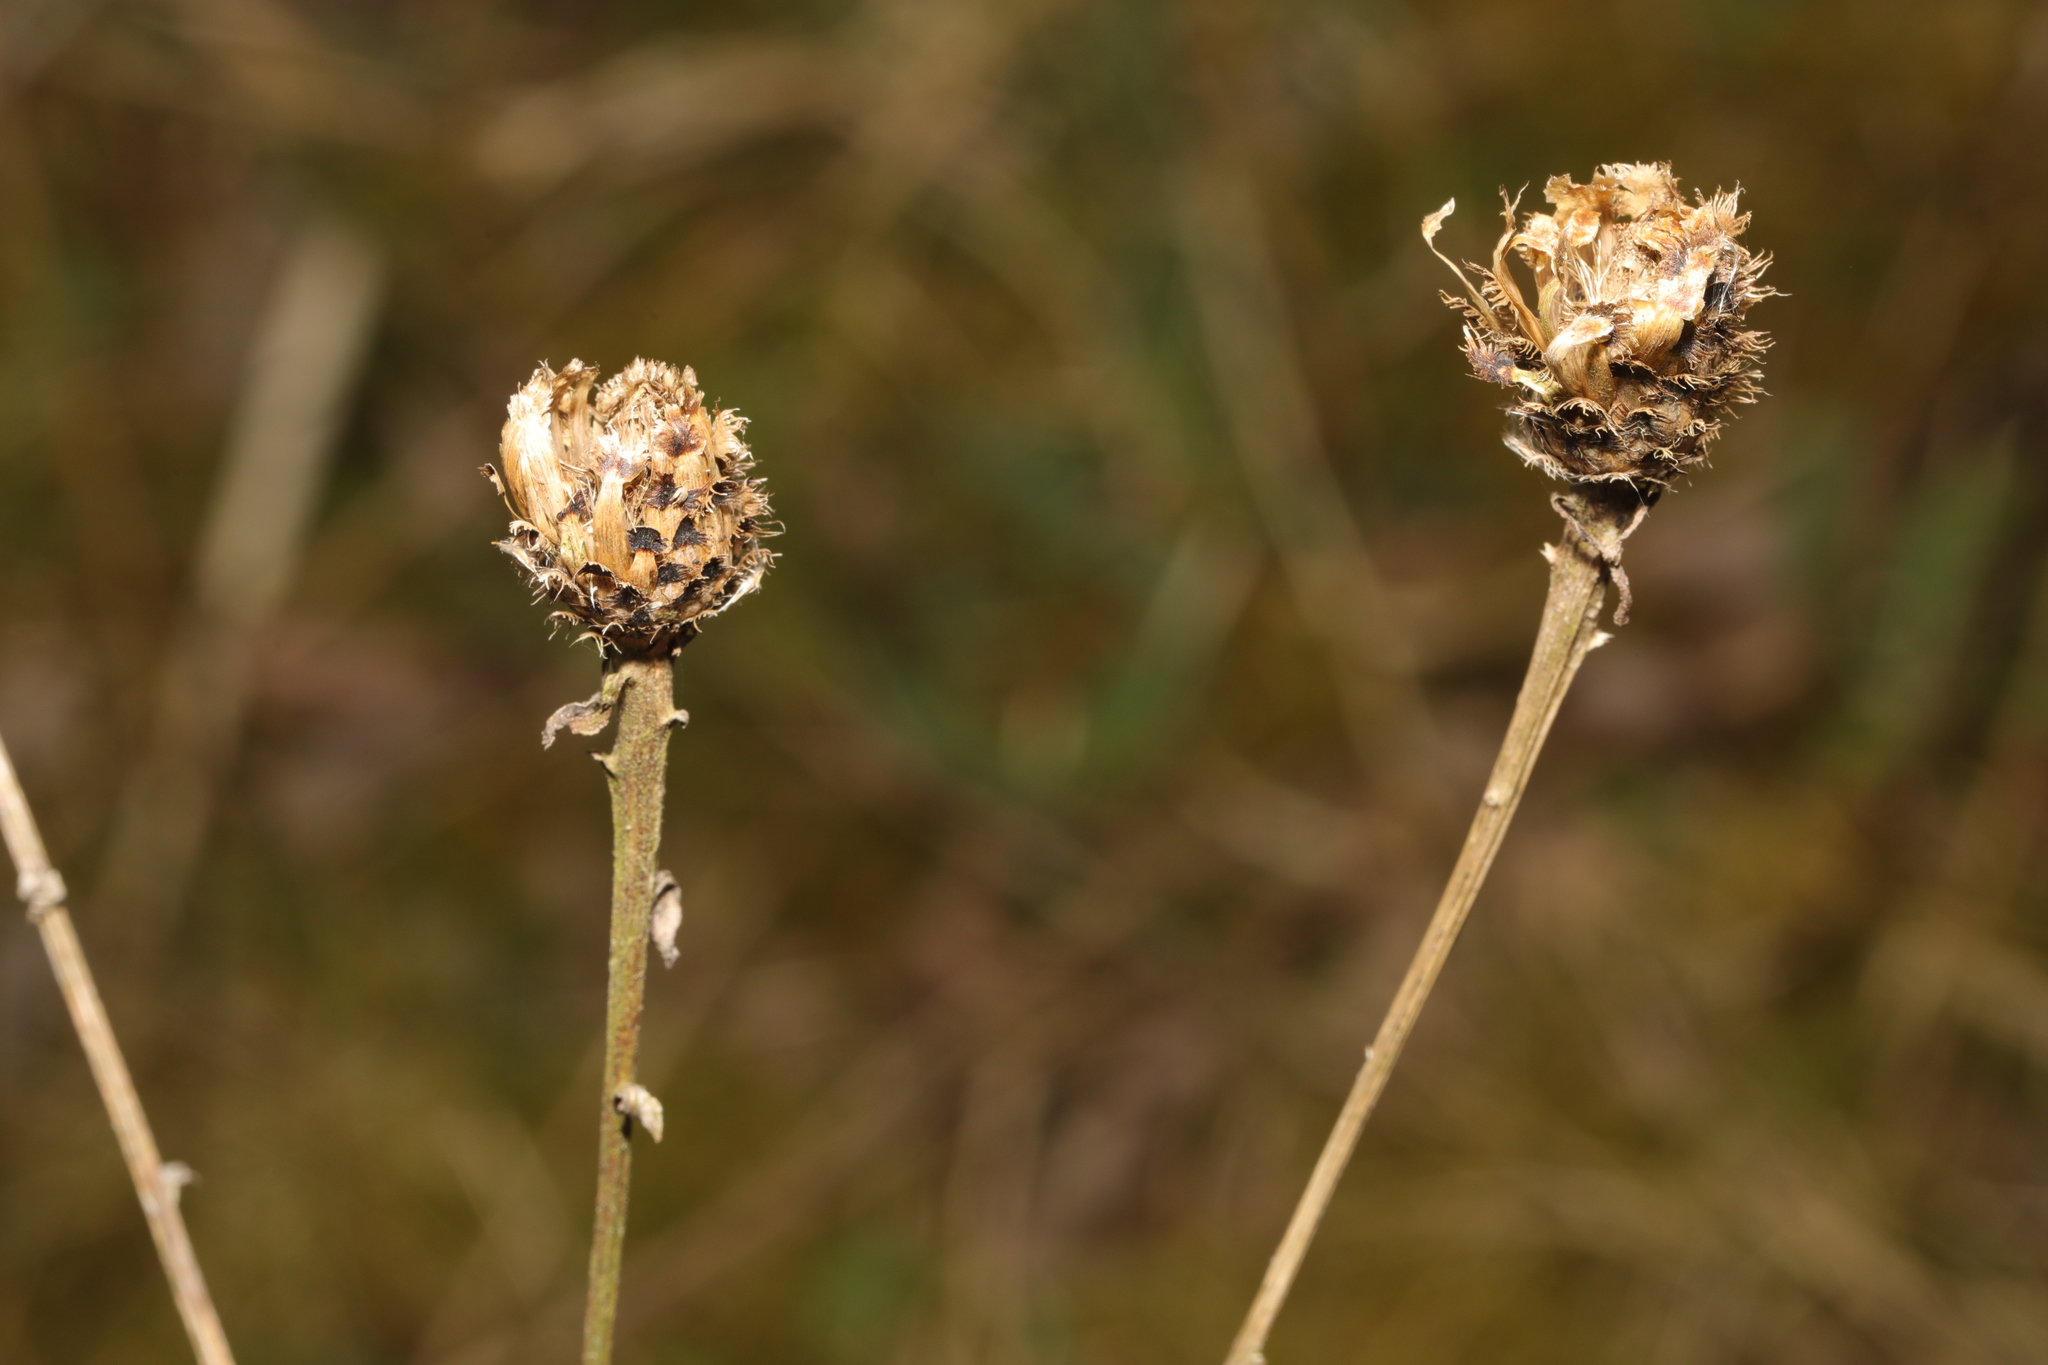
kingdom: Plantae
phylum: Tracheophyta
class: Magnoliopsida
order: Asterales
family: Asteraceae
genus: Centaurea
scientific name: Centaurea nigra
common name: Lesser knapweed
